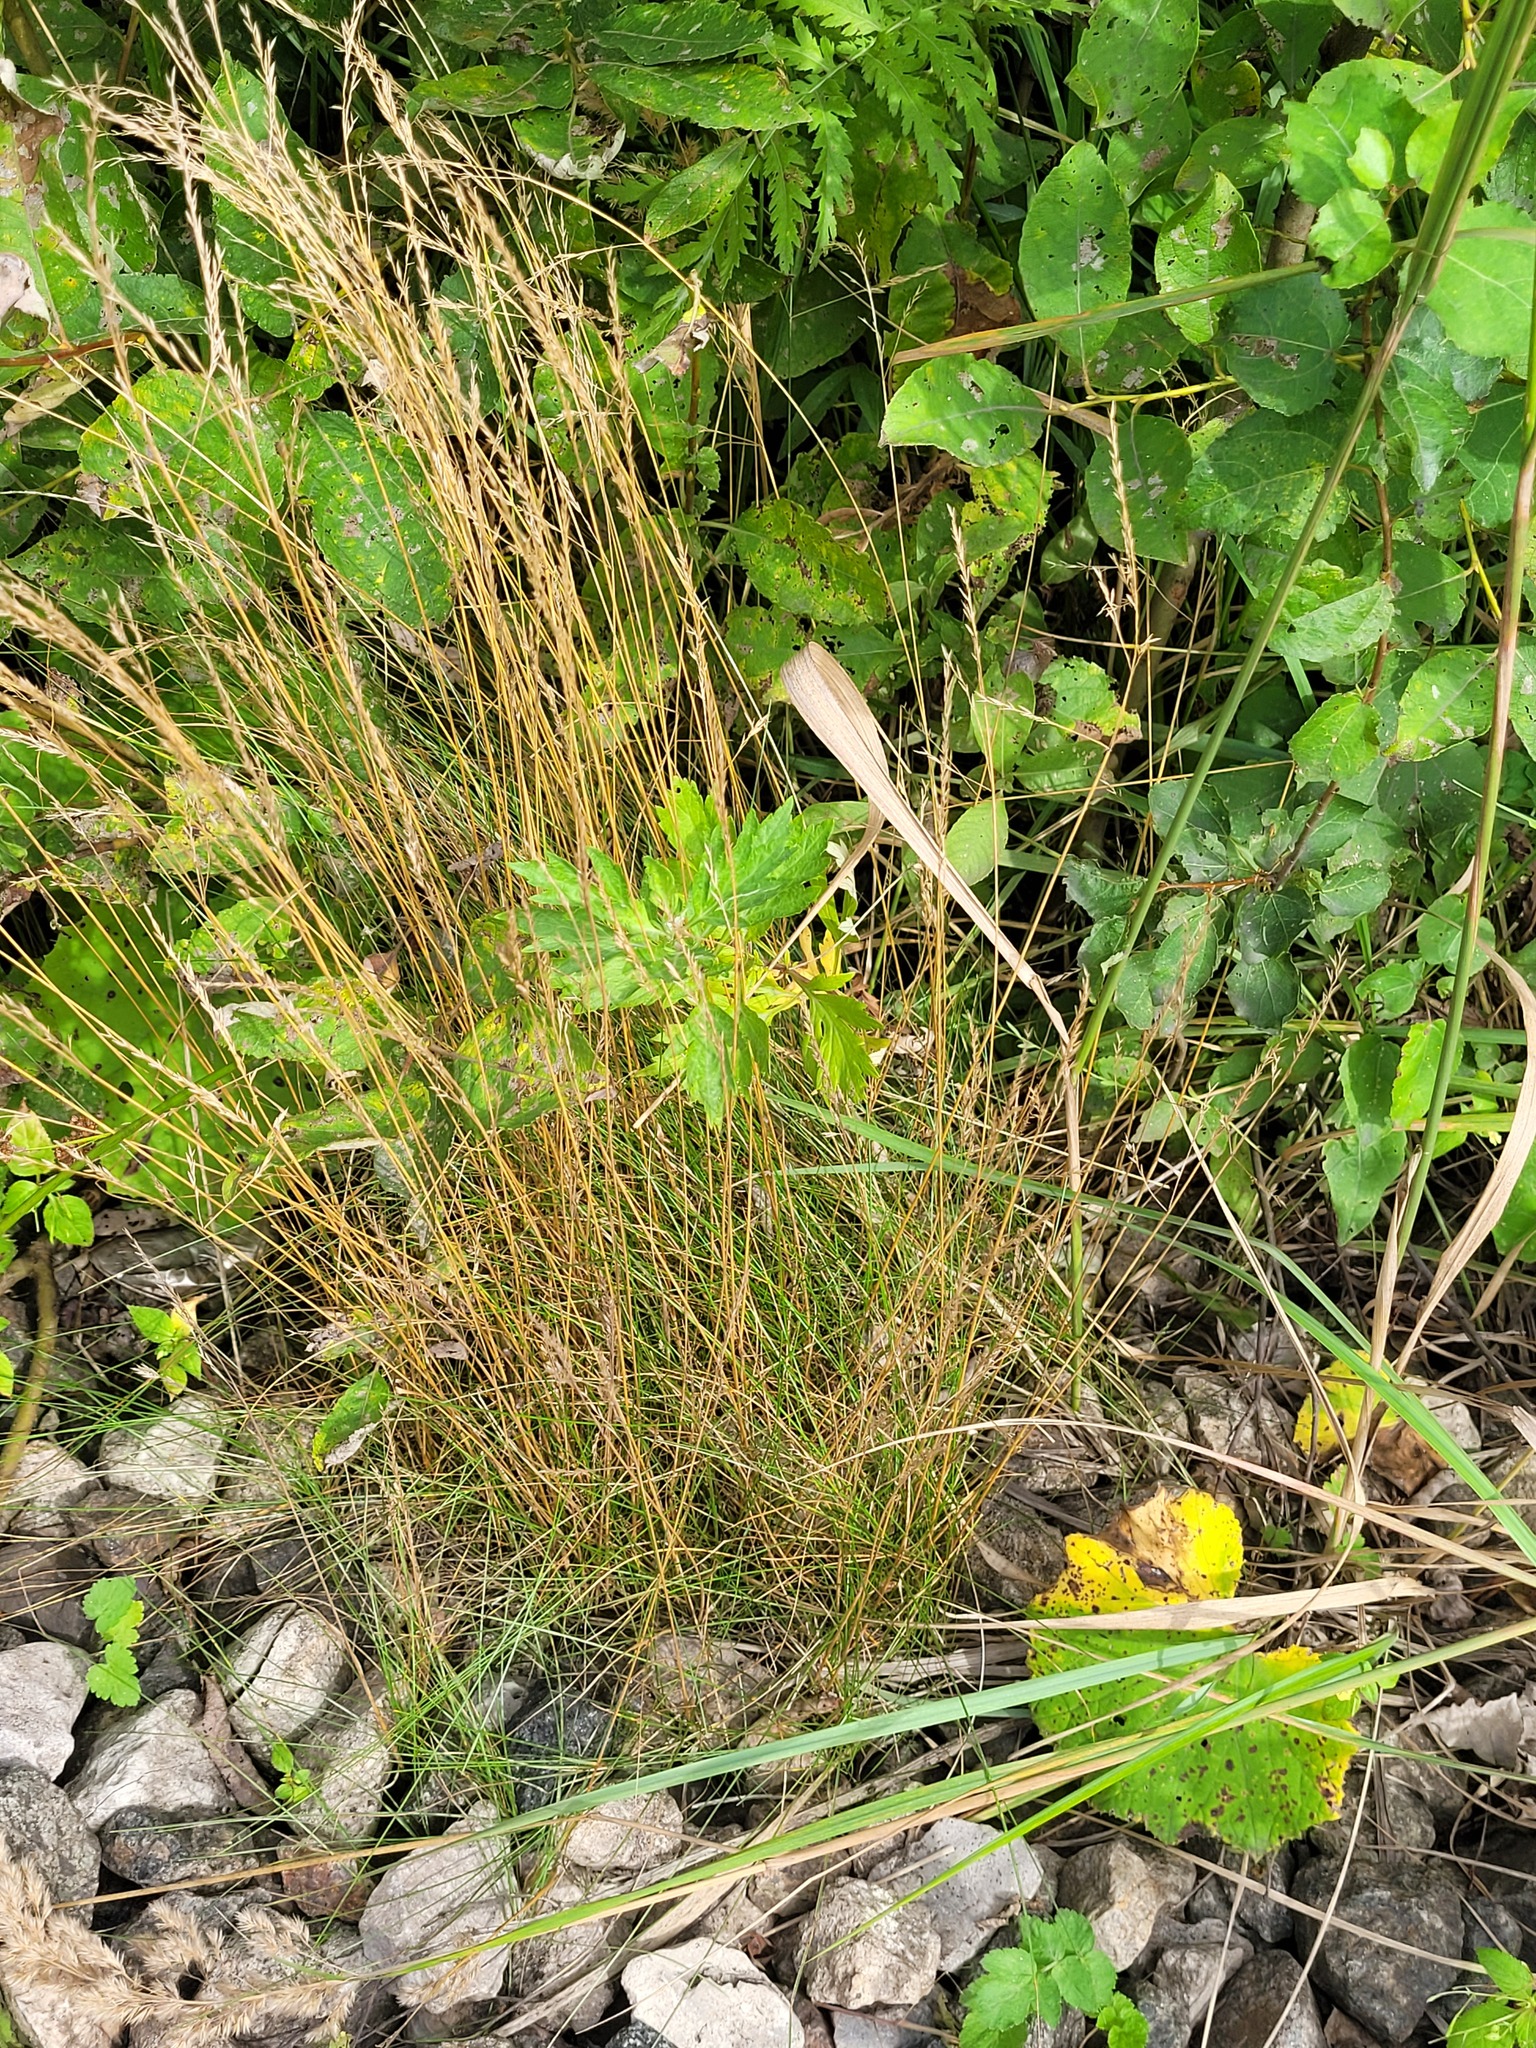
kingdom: Plantae
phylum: Tracheophyta
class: Liliopsida
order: Poales
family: Poaceae
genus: Festuca
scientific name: Festuca rubra
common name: Red fescue
